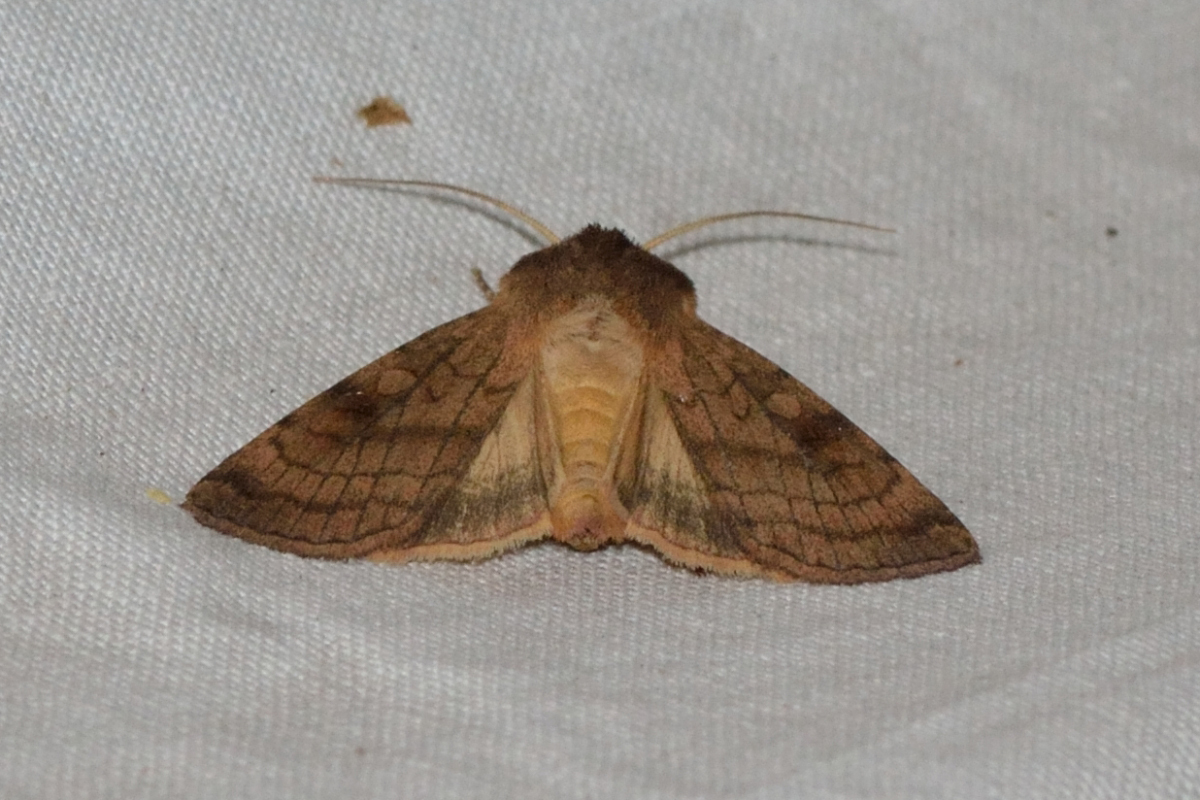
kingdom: Animalia
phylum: Arthropoda
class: Insecta
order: Lepidoptera
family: Noctuidae
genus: Xestia
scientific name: Xestia sexstrigata
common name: Six-striped rustic
